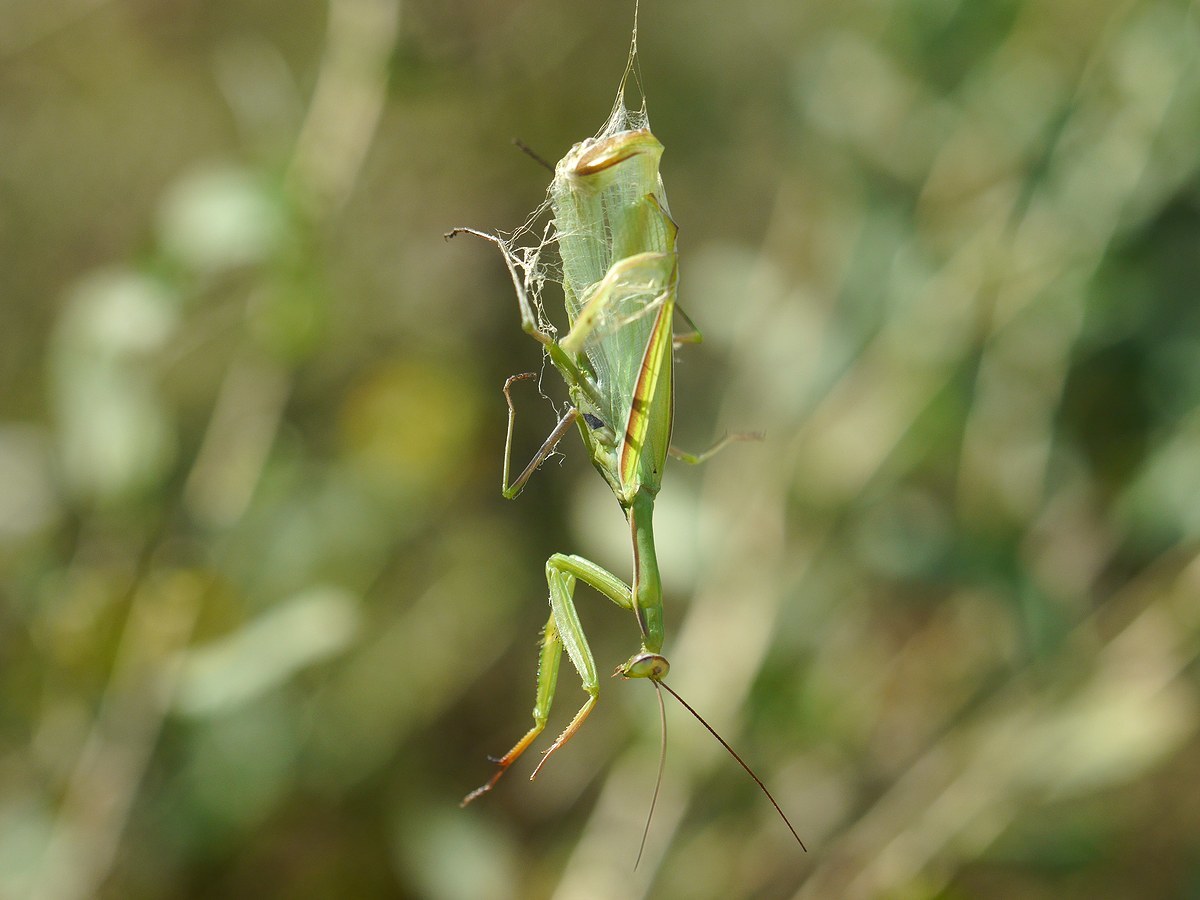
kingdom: Animalia
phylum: Arthropoda
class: Insecta
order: Mantodea
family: Mantidae
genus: Mantis
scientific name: Mantis religiosa
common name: Praying mantis
